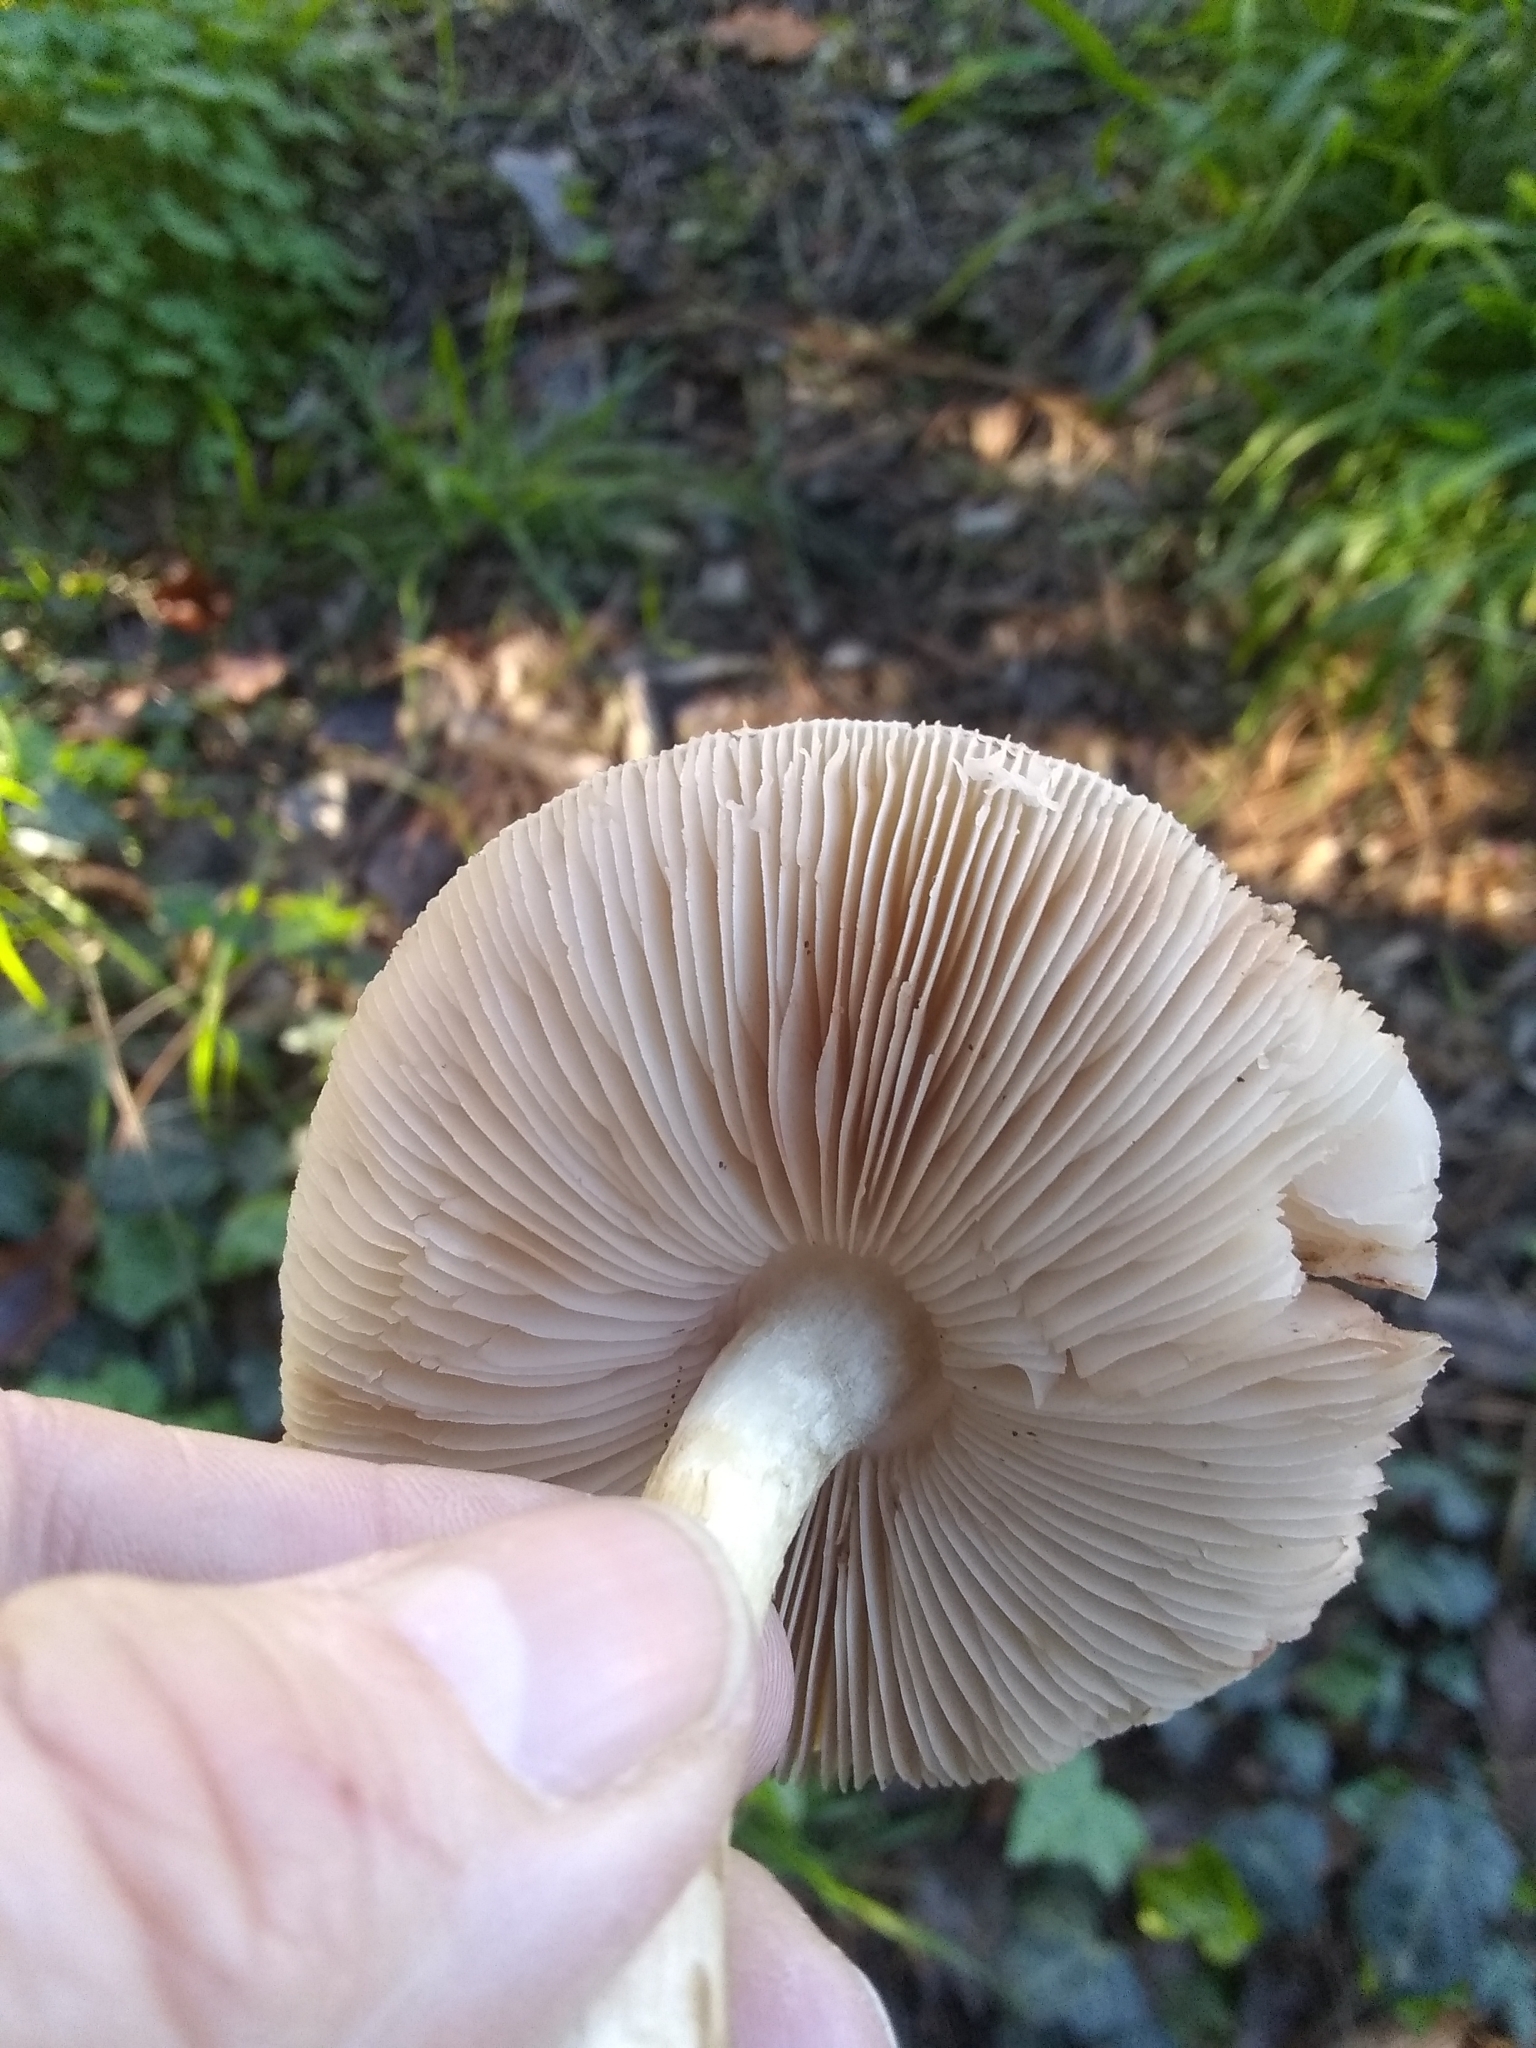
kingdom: Fungi
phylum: Basidiomycota
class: Agaricomycetes
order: Agaricales
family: Pluteaceae
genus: Pluteus
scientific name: Pluteus cervinus
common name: Deer shield
